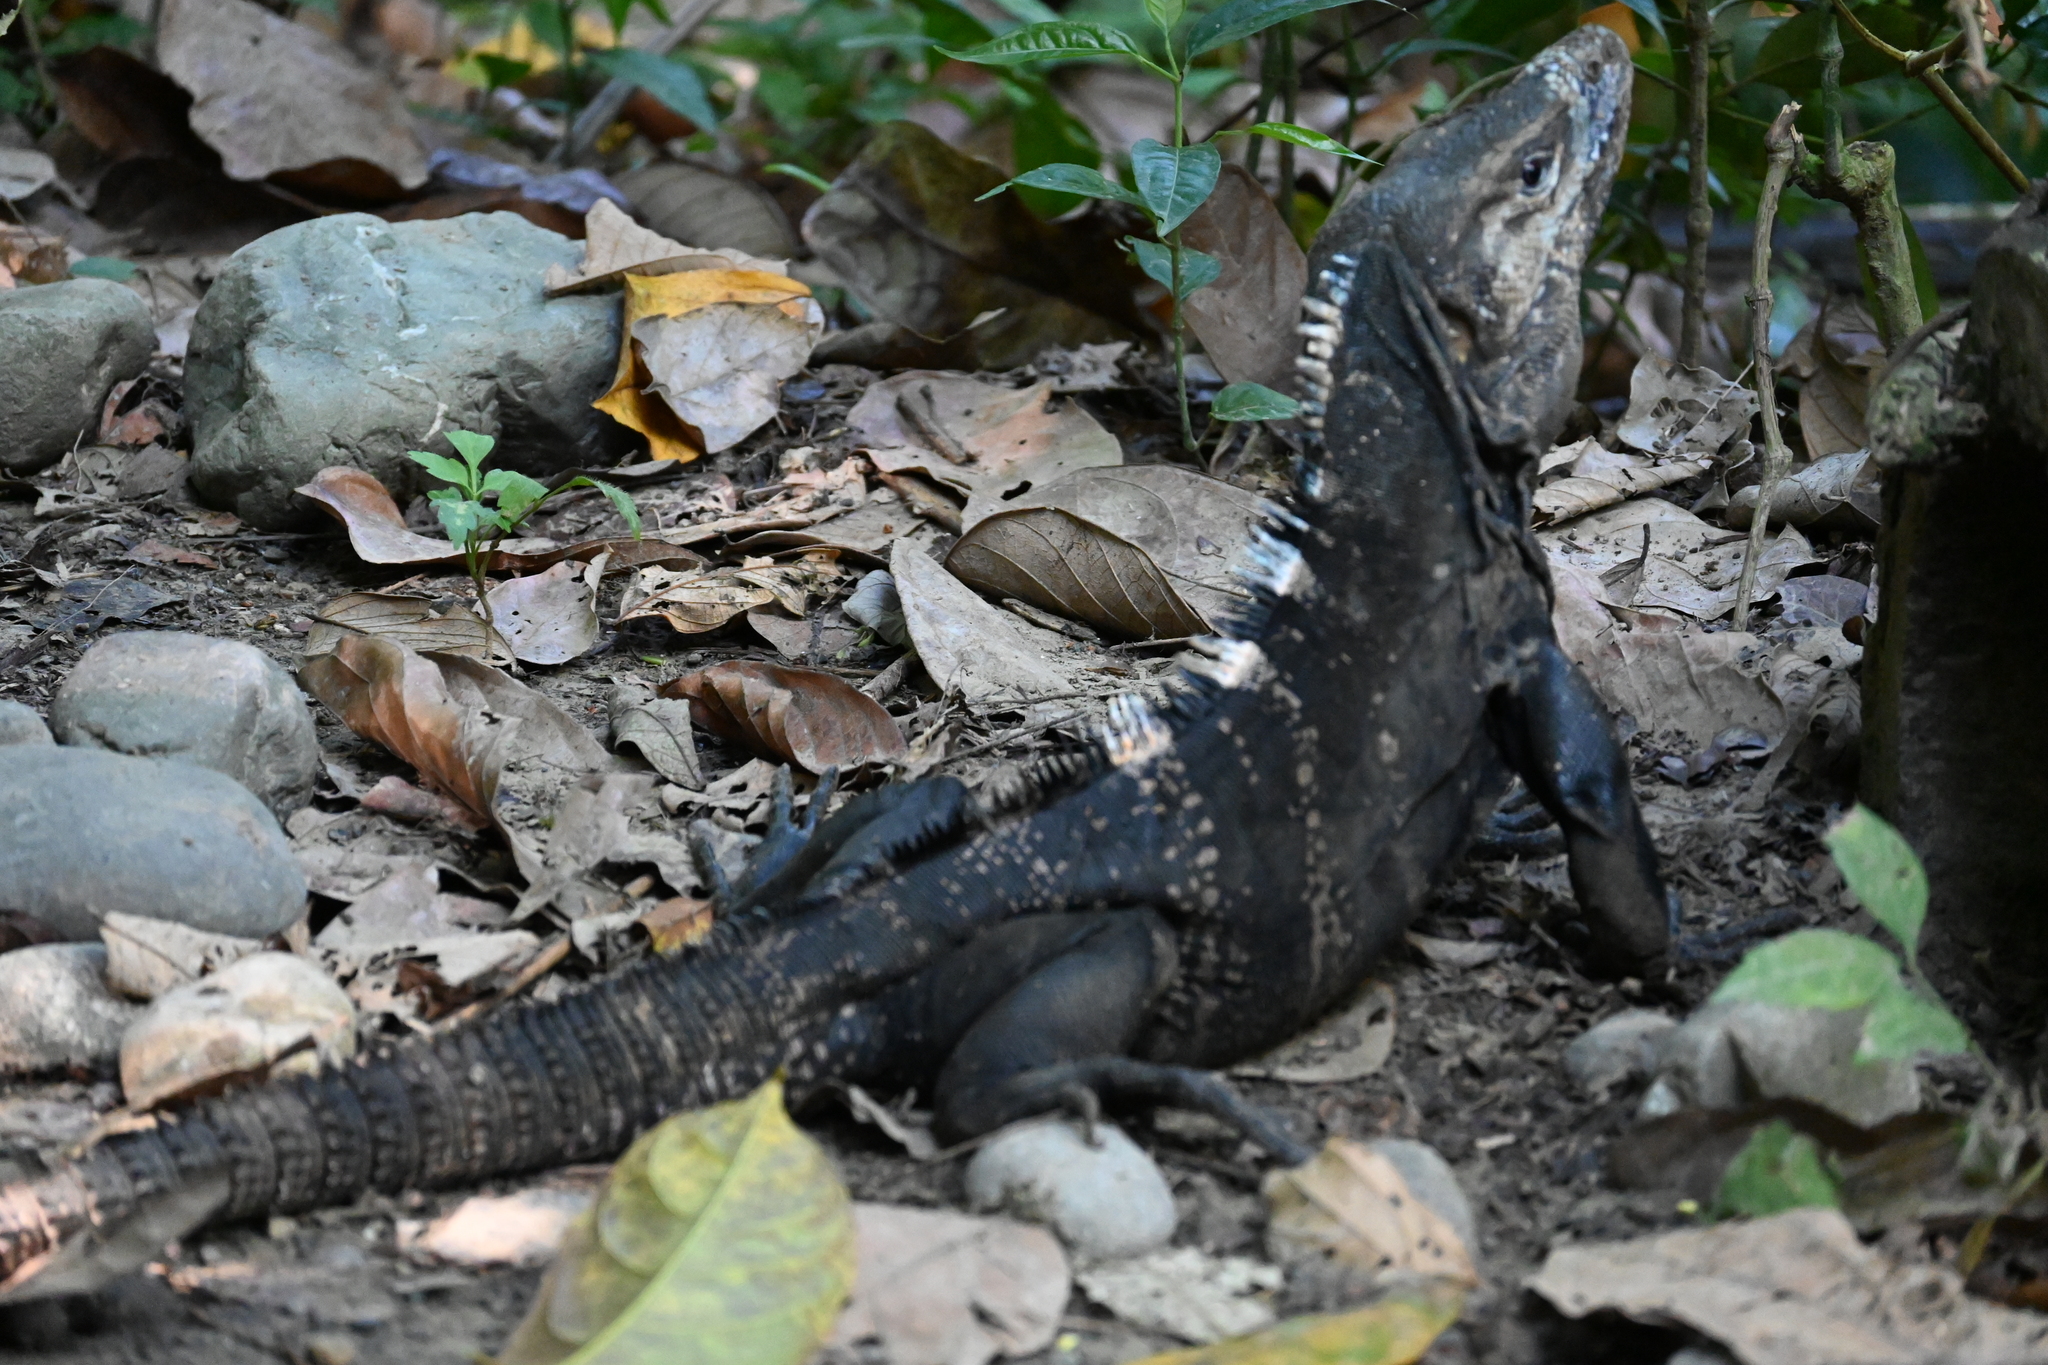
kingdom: Animalia
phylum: Chordata
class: Squamata
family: Iguanidae
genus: Ctenosaura
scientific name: Ctenosaura similis
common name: Black spiny-tailed iguana
